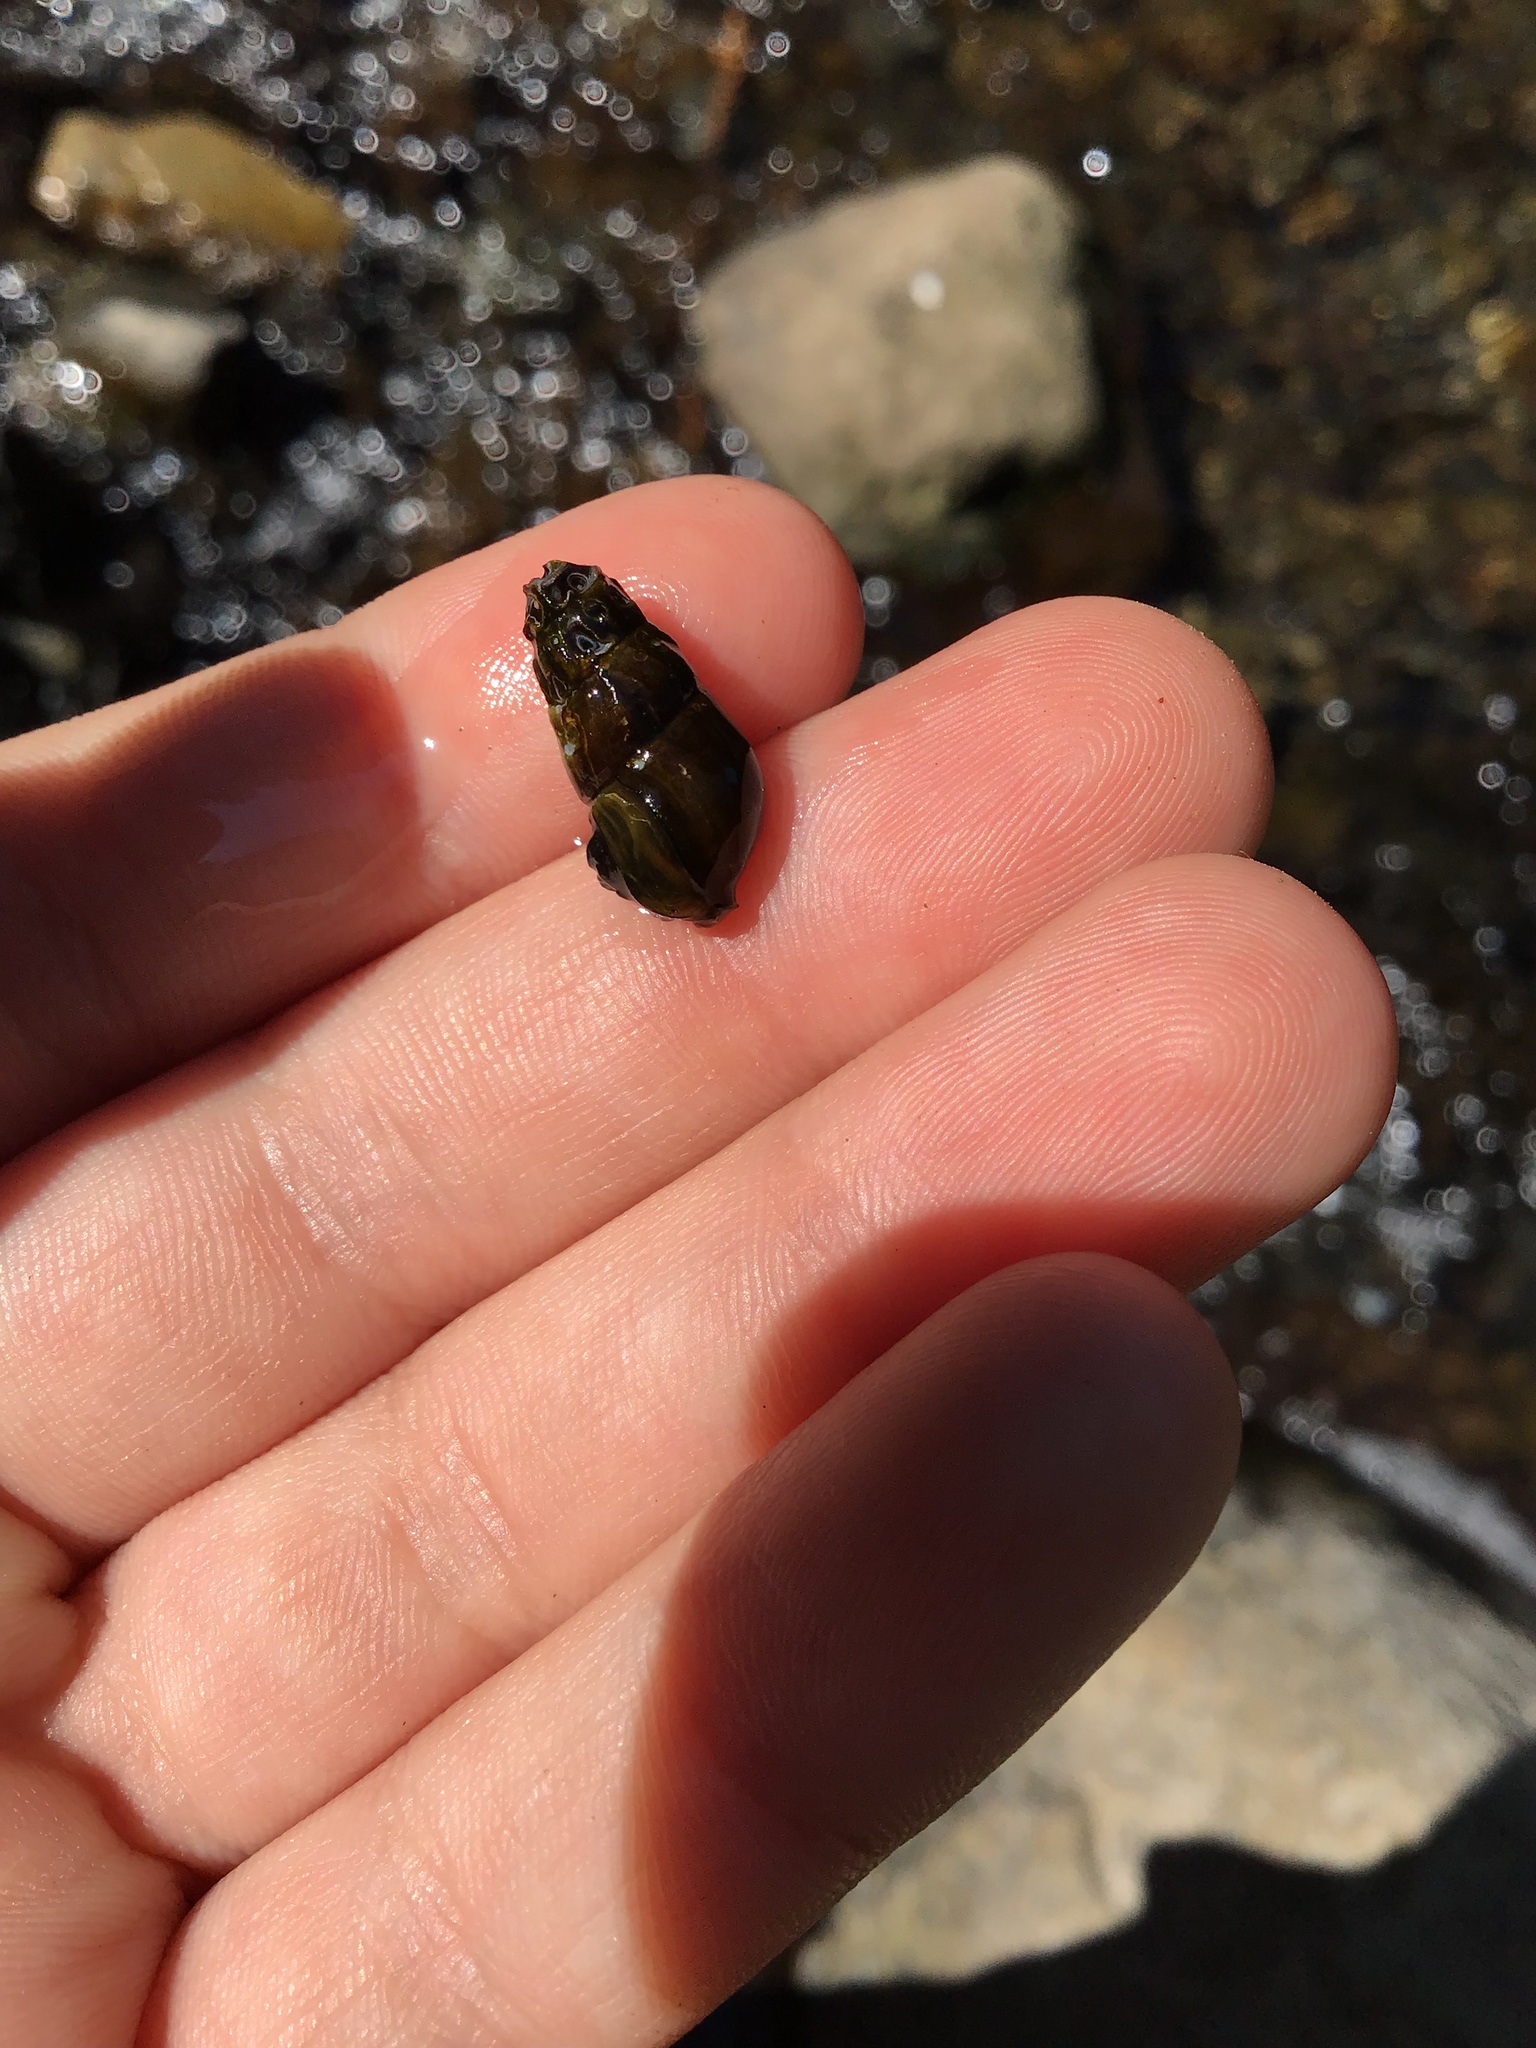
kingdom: Animalia
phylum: Mollusca
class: Gastropoda
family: Semisulcospiridae
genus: Juga
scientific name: Juga plicifera
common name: Pleated juga
